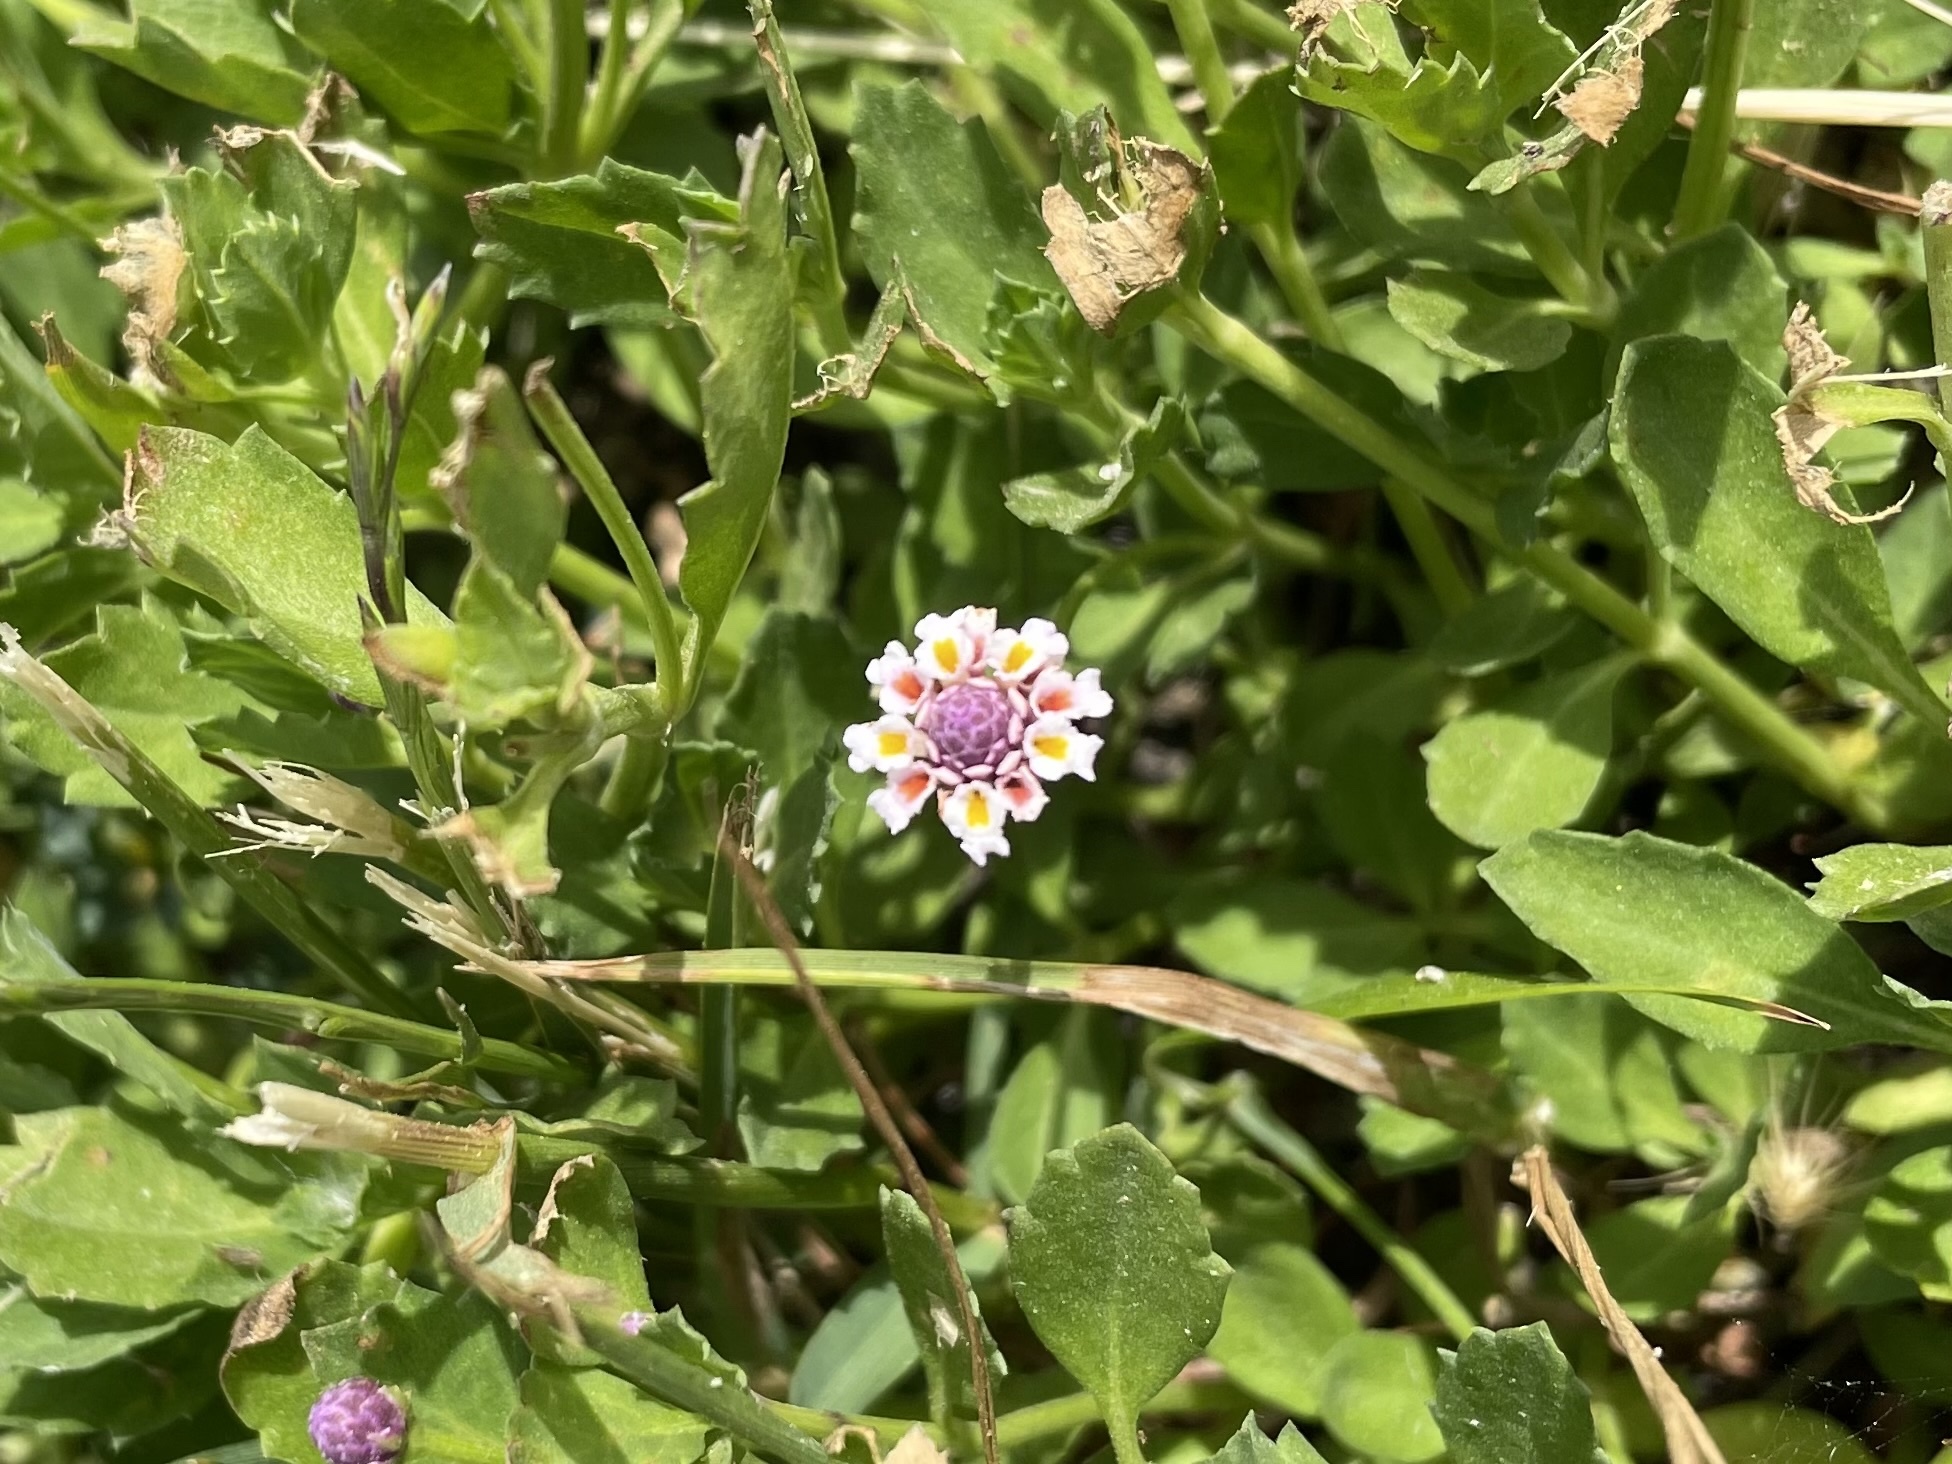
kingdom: Plantae
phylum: Tracheophyta
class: Magnoliopsida
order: Lamiales
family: Verbenaceae
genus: Phyla
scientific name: Phyla nodiflora
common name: Frogfruit
